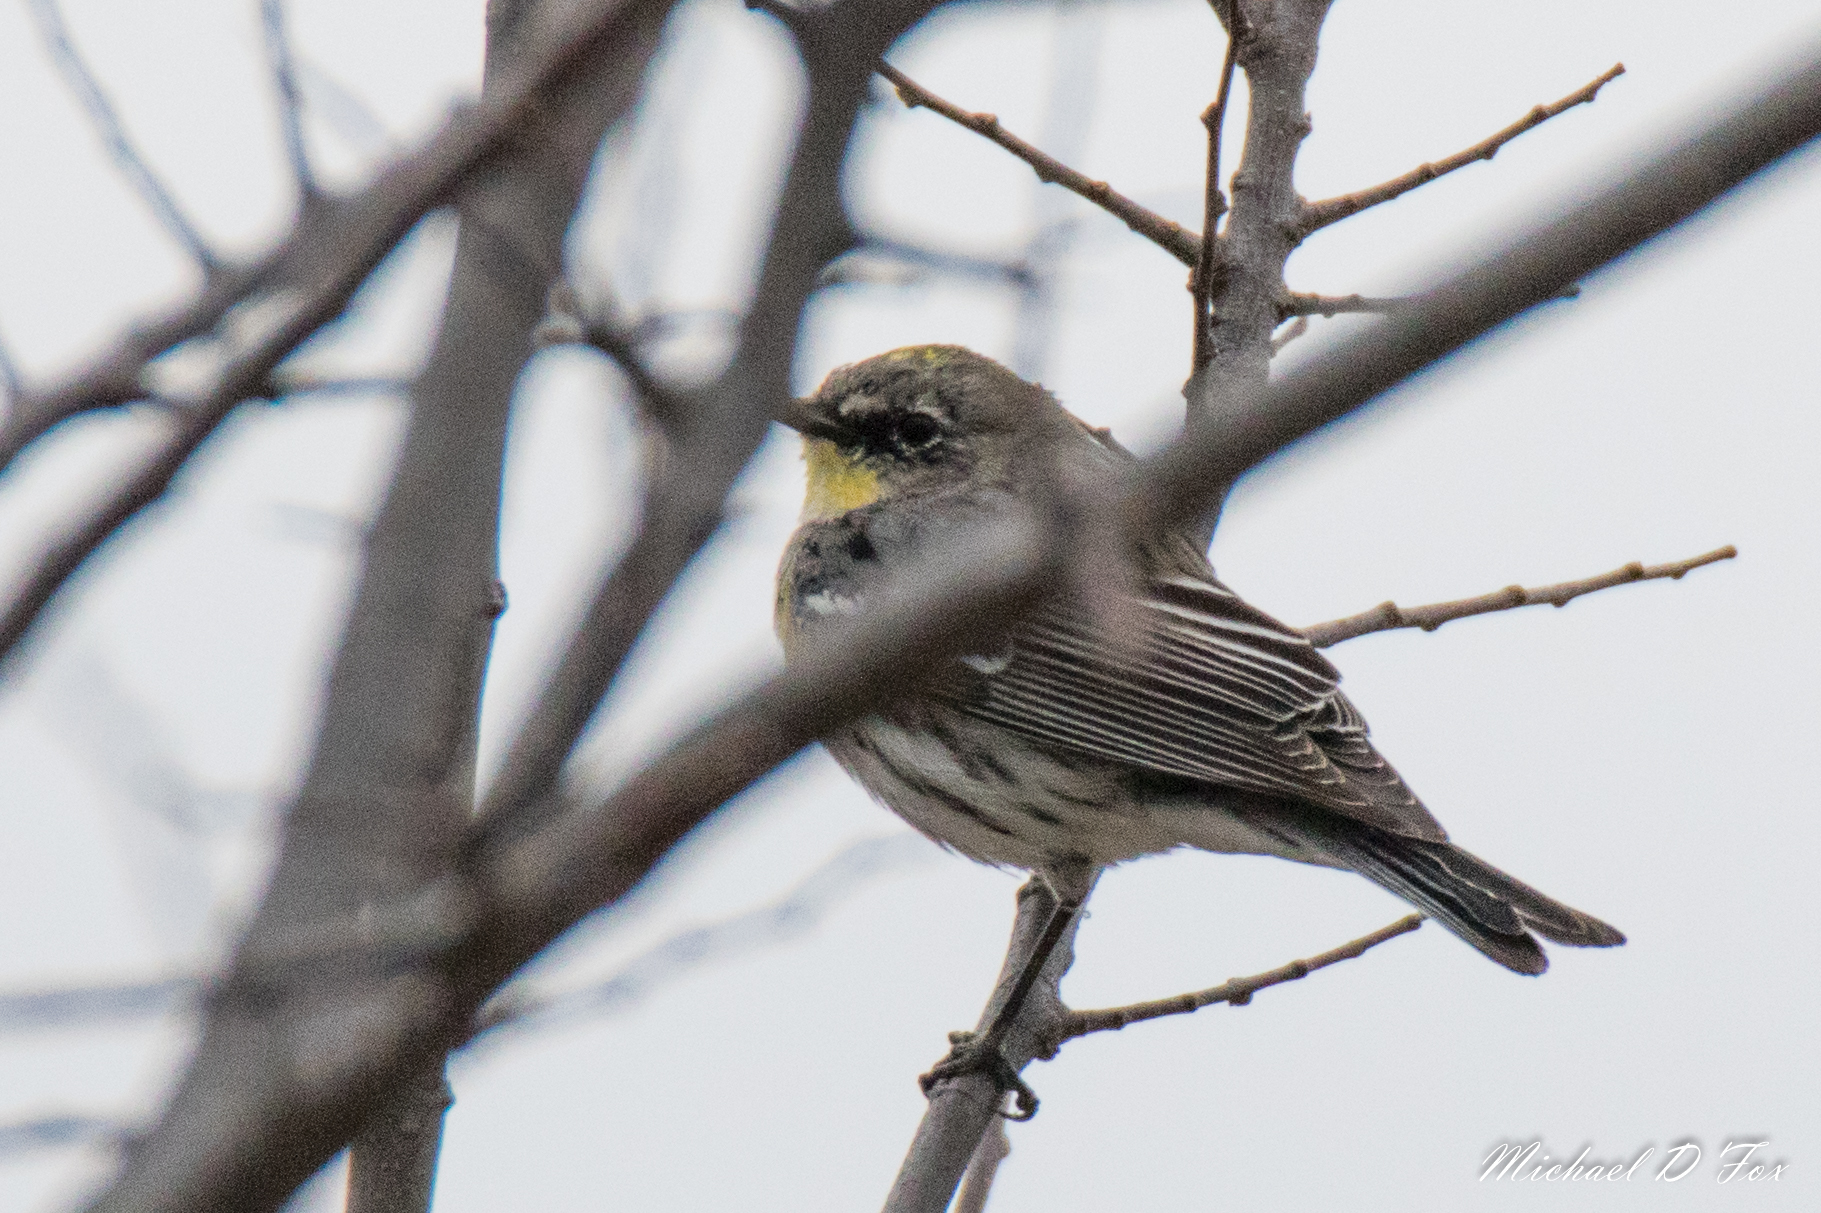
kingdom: Animalia
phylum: Chordata
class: Aves
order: Passeriformes
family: Parulidae
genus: Setophaga
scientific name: Setophaga coronata
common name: Myrtle warbler
